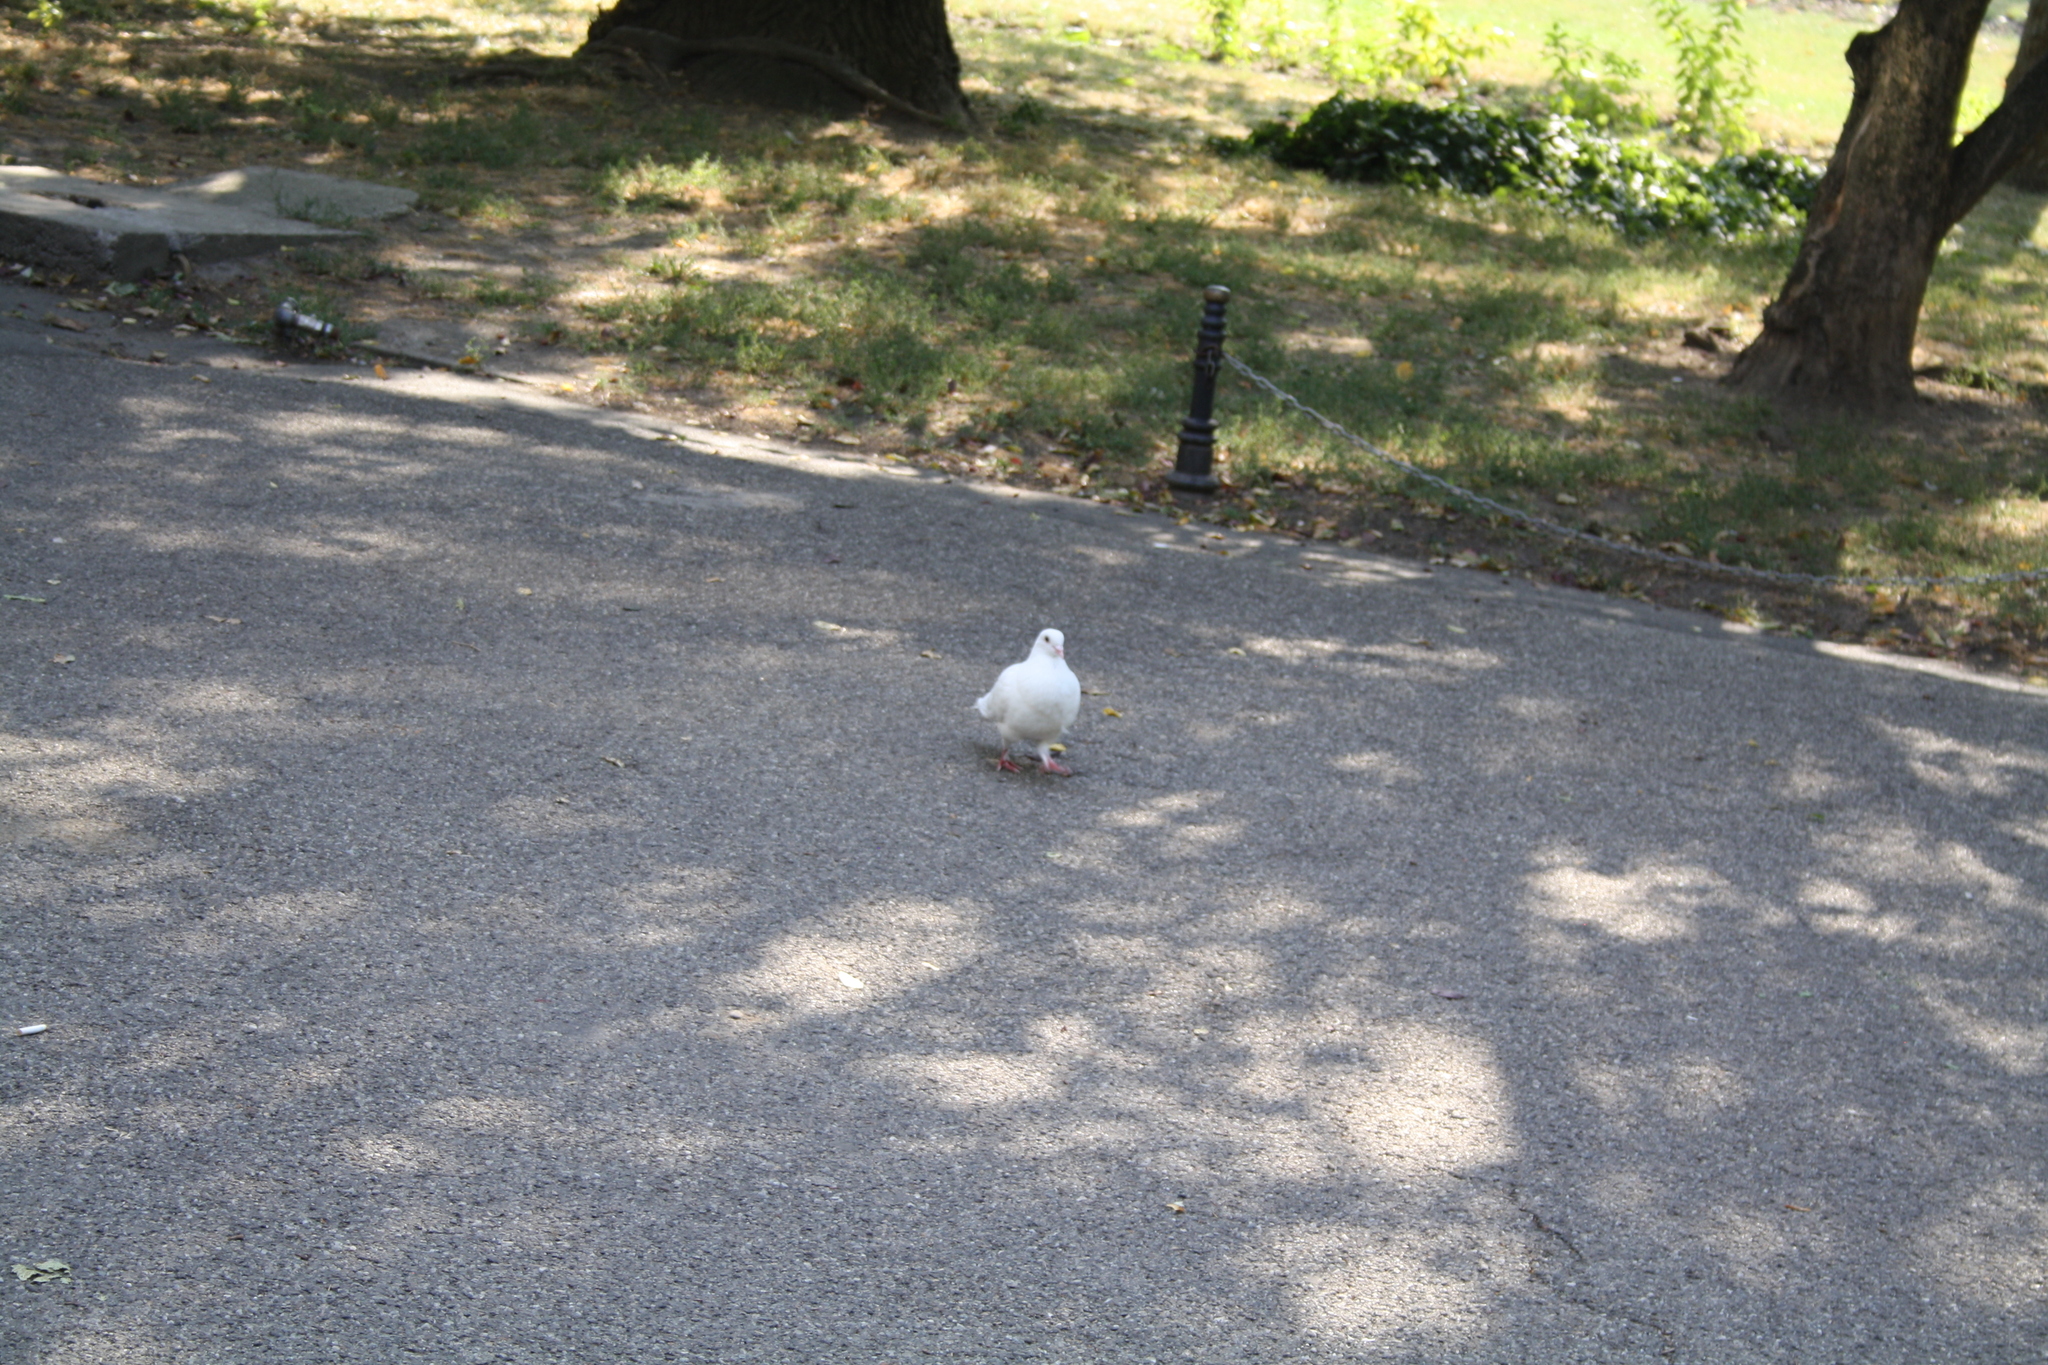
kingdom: Animalia
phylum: Chordata
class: Aves
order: Columbiformes
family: Columbidae
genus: Columba
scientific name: Columba livia
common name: Rock pigeon
